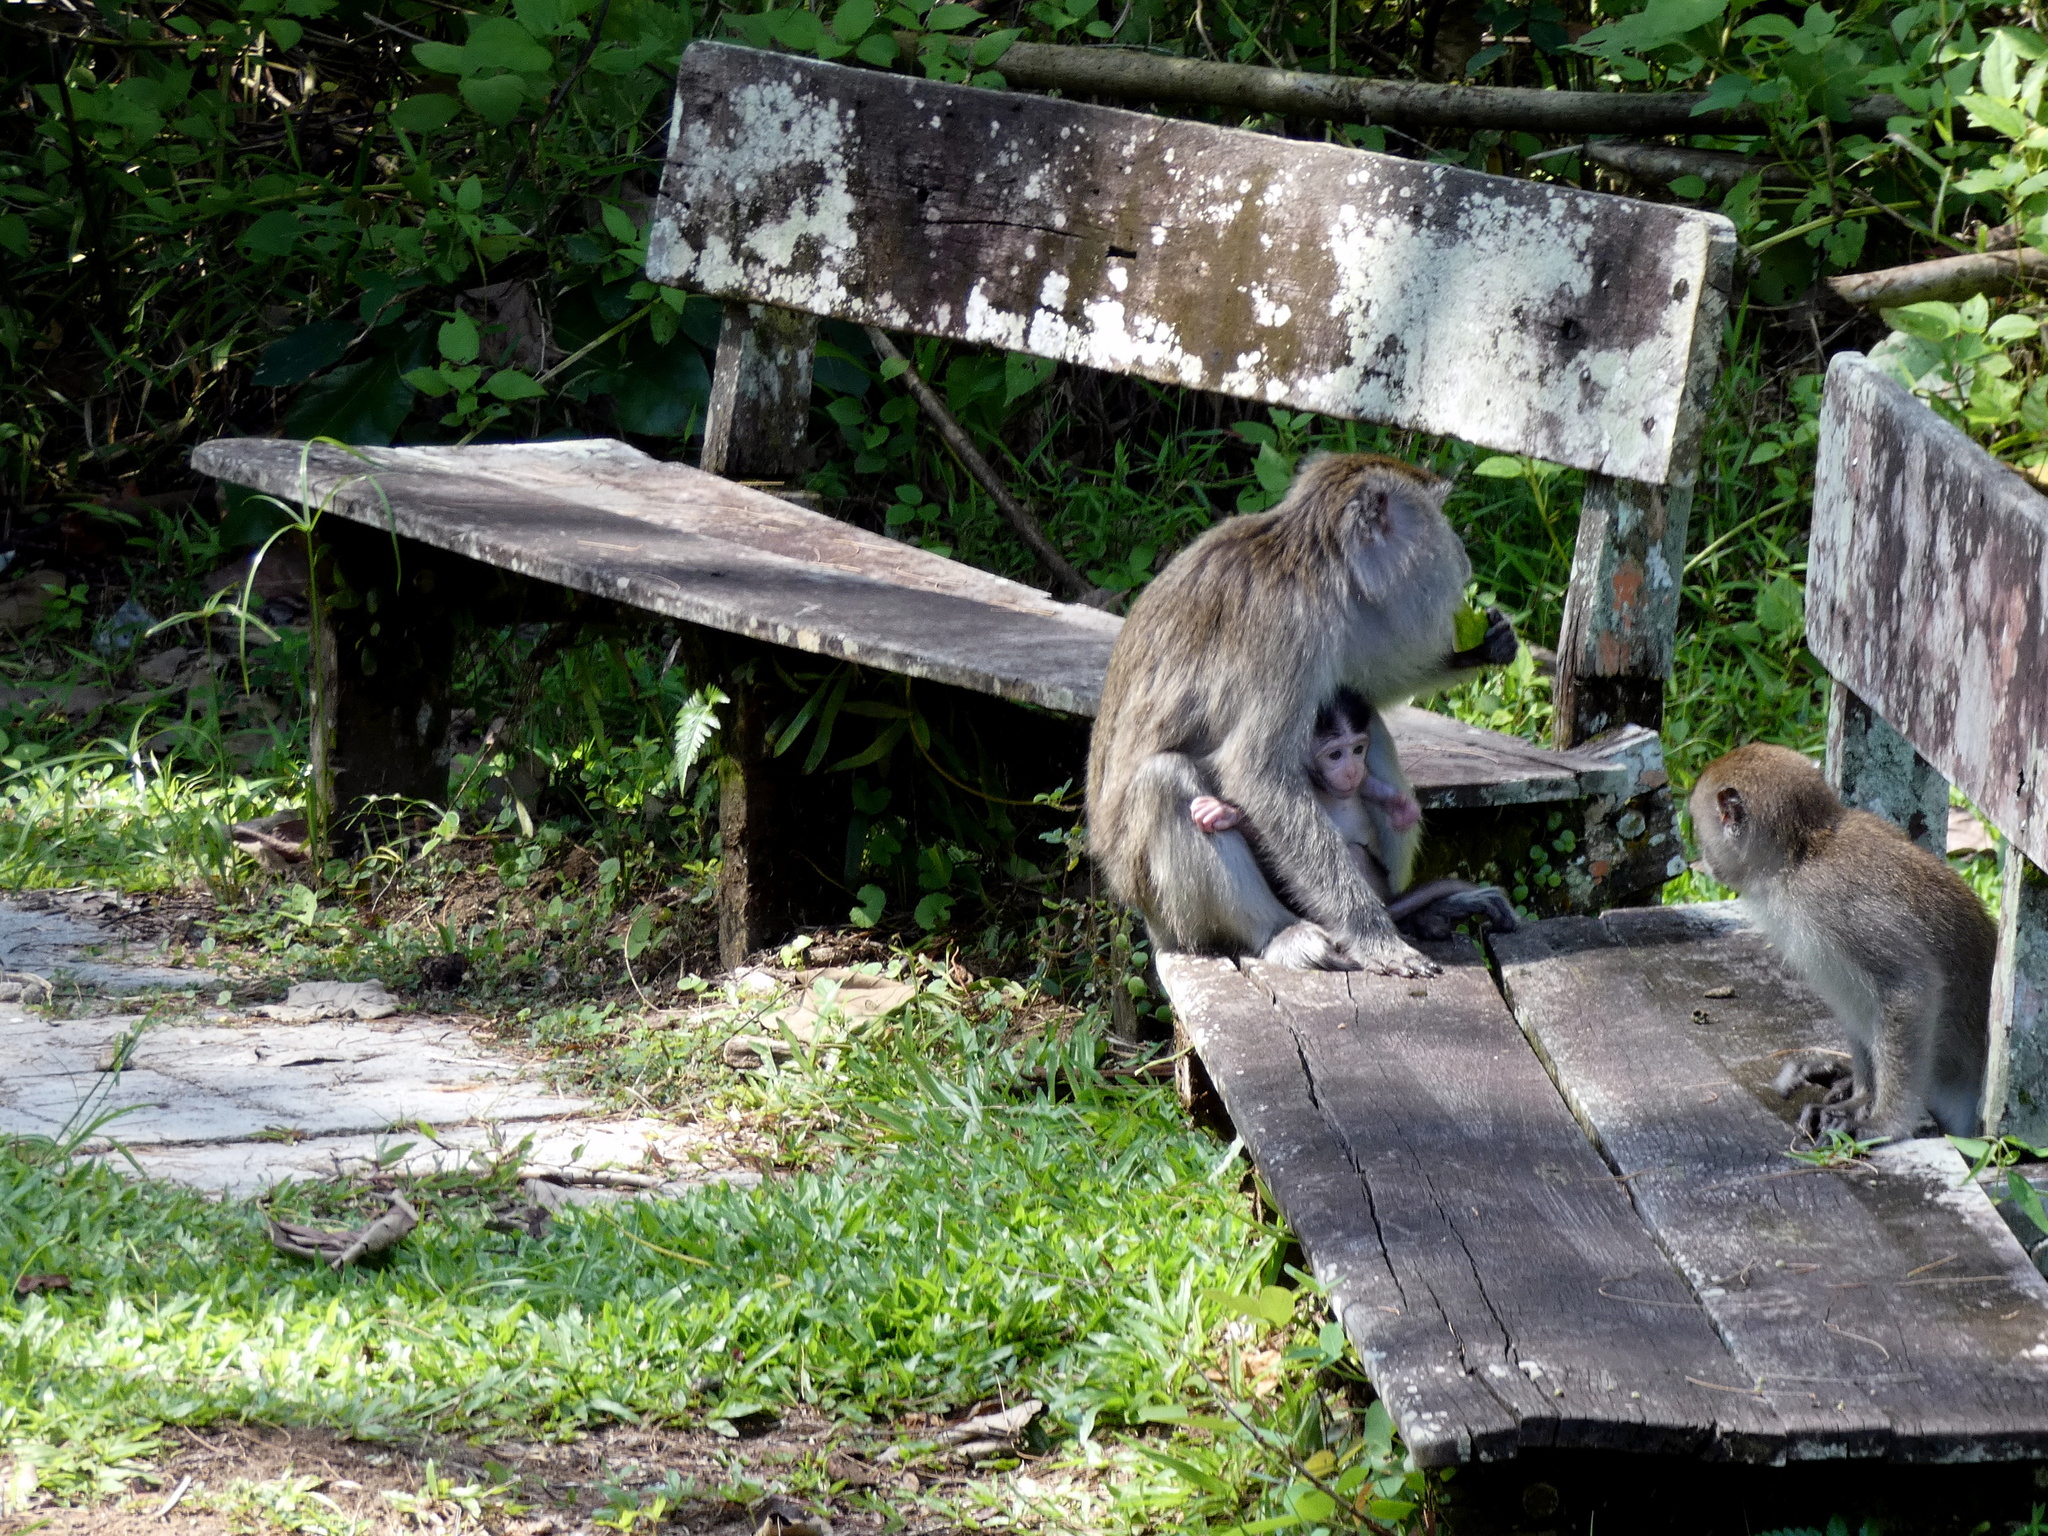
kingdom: Animalia
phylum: Chordata
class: Mammalia
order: Primates
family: Cercopithecidae
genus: Macaca
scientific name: Macaca fascicularis
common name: Crab-eating macaque
